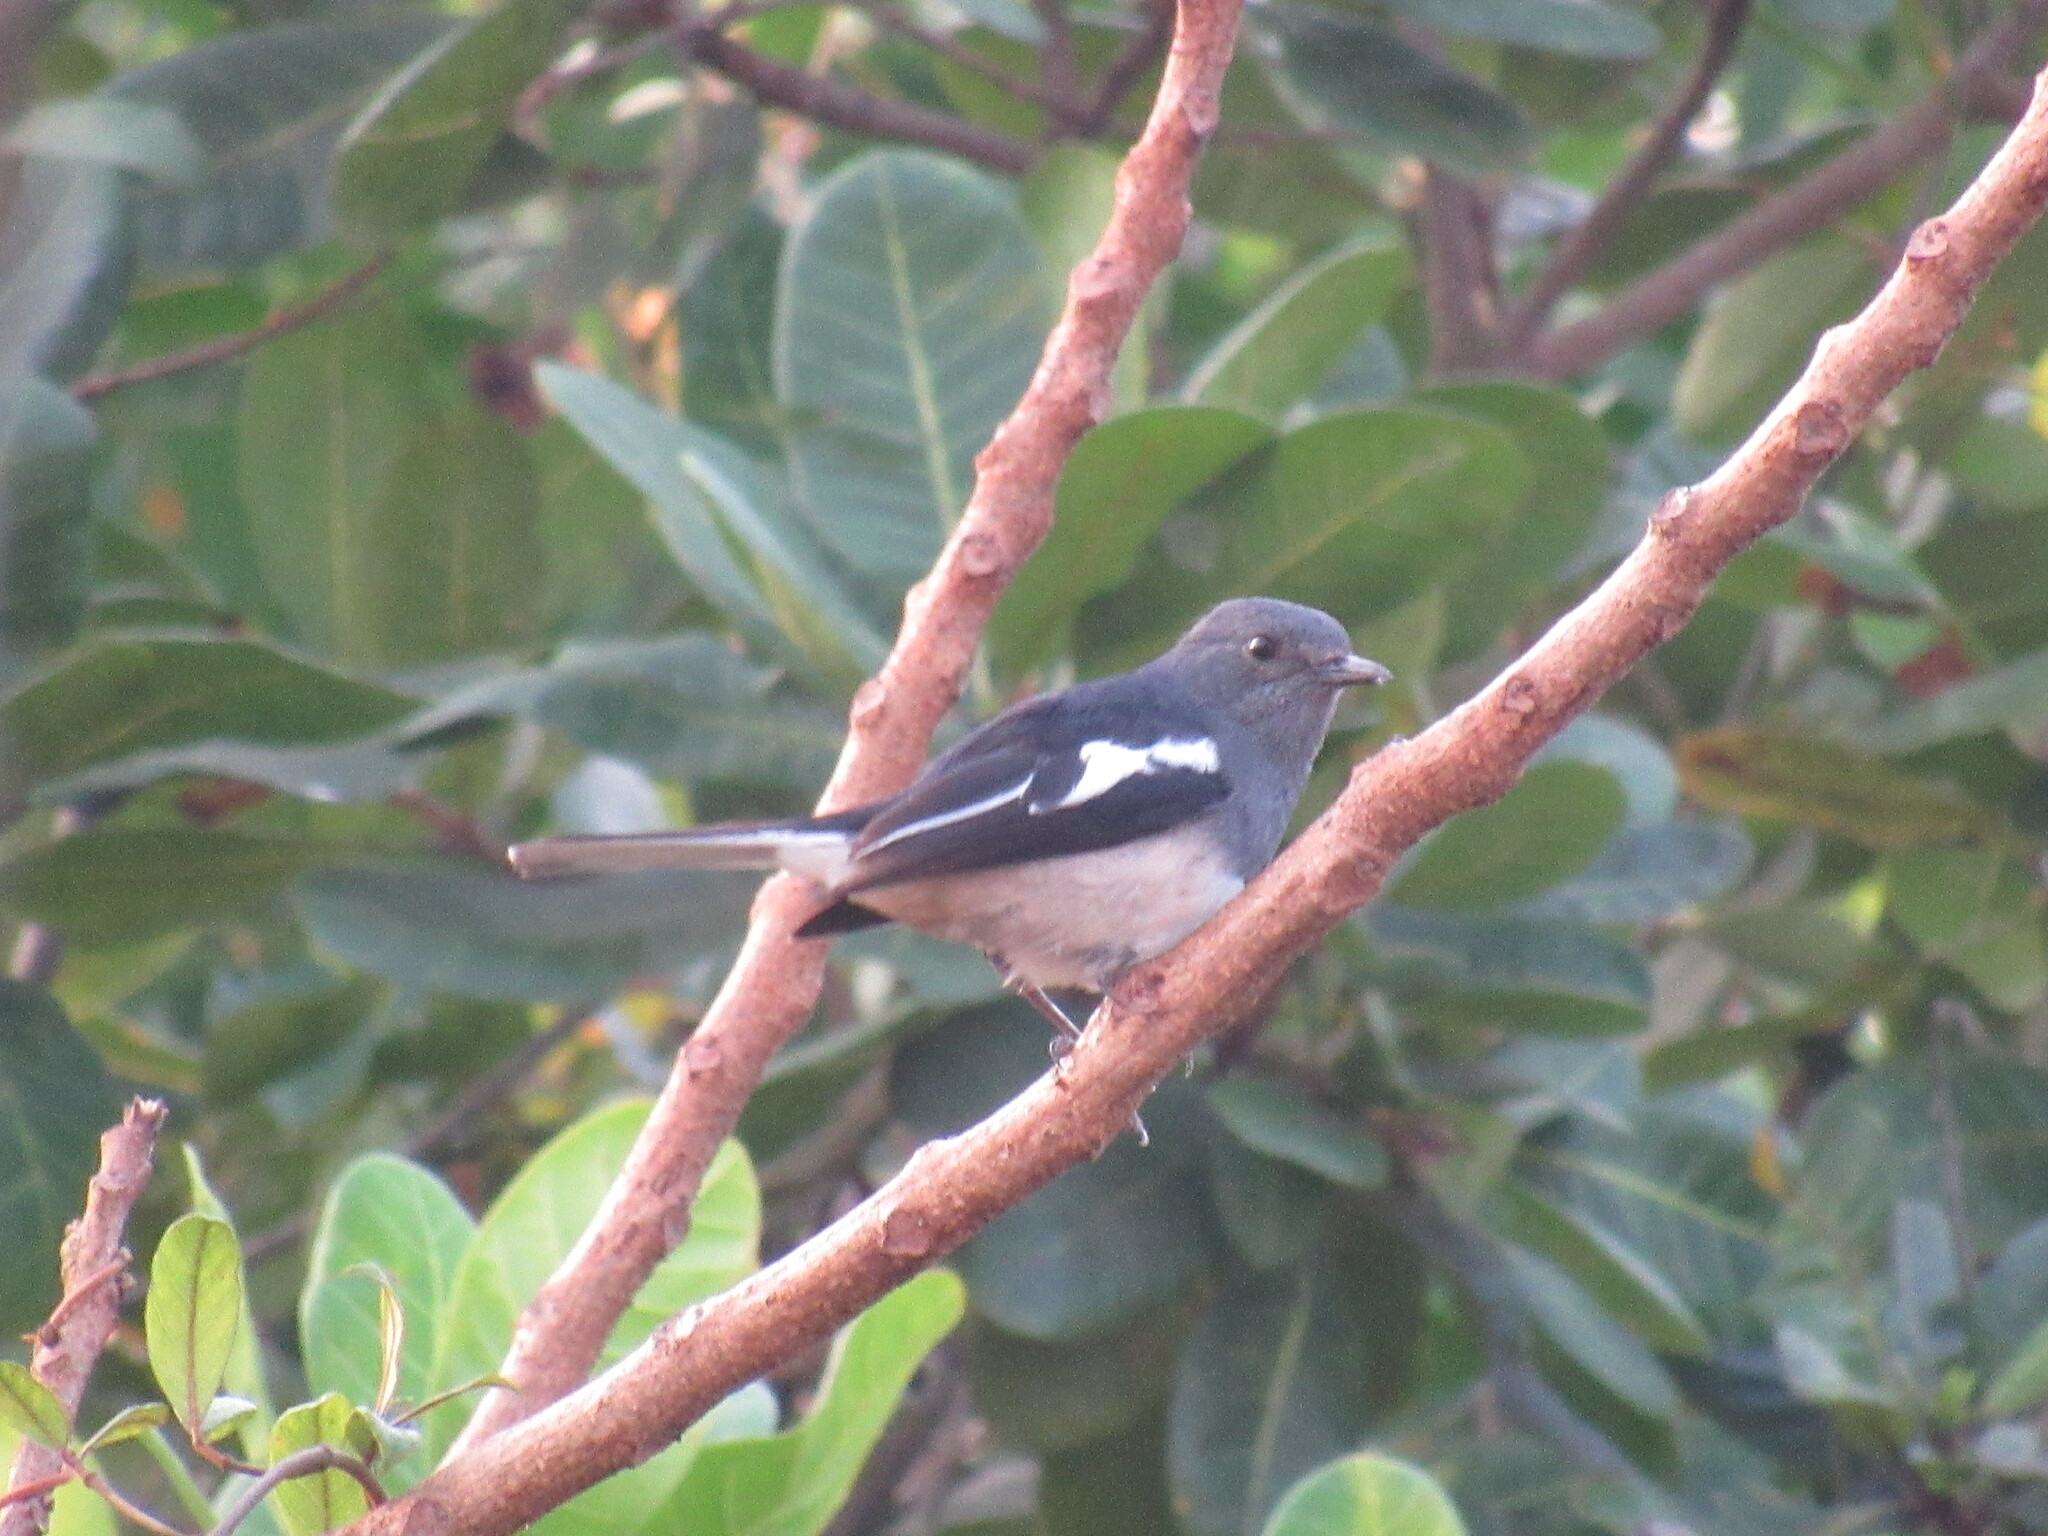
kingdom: Animalia
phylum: Chordata
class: Aves
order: Passeriformes
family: Muscicapidae
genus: Copsychus
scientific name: Copsychus saularis
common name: Oriental magpie-robin
